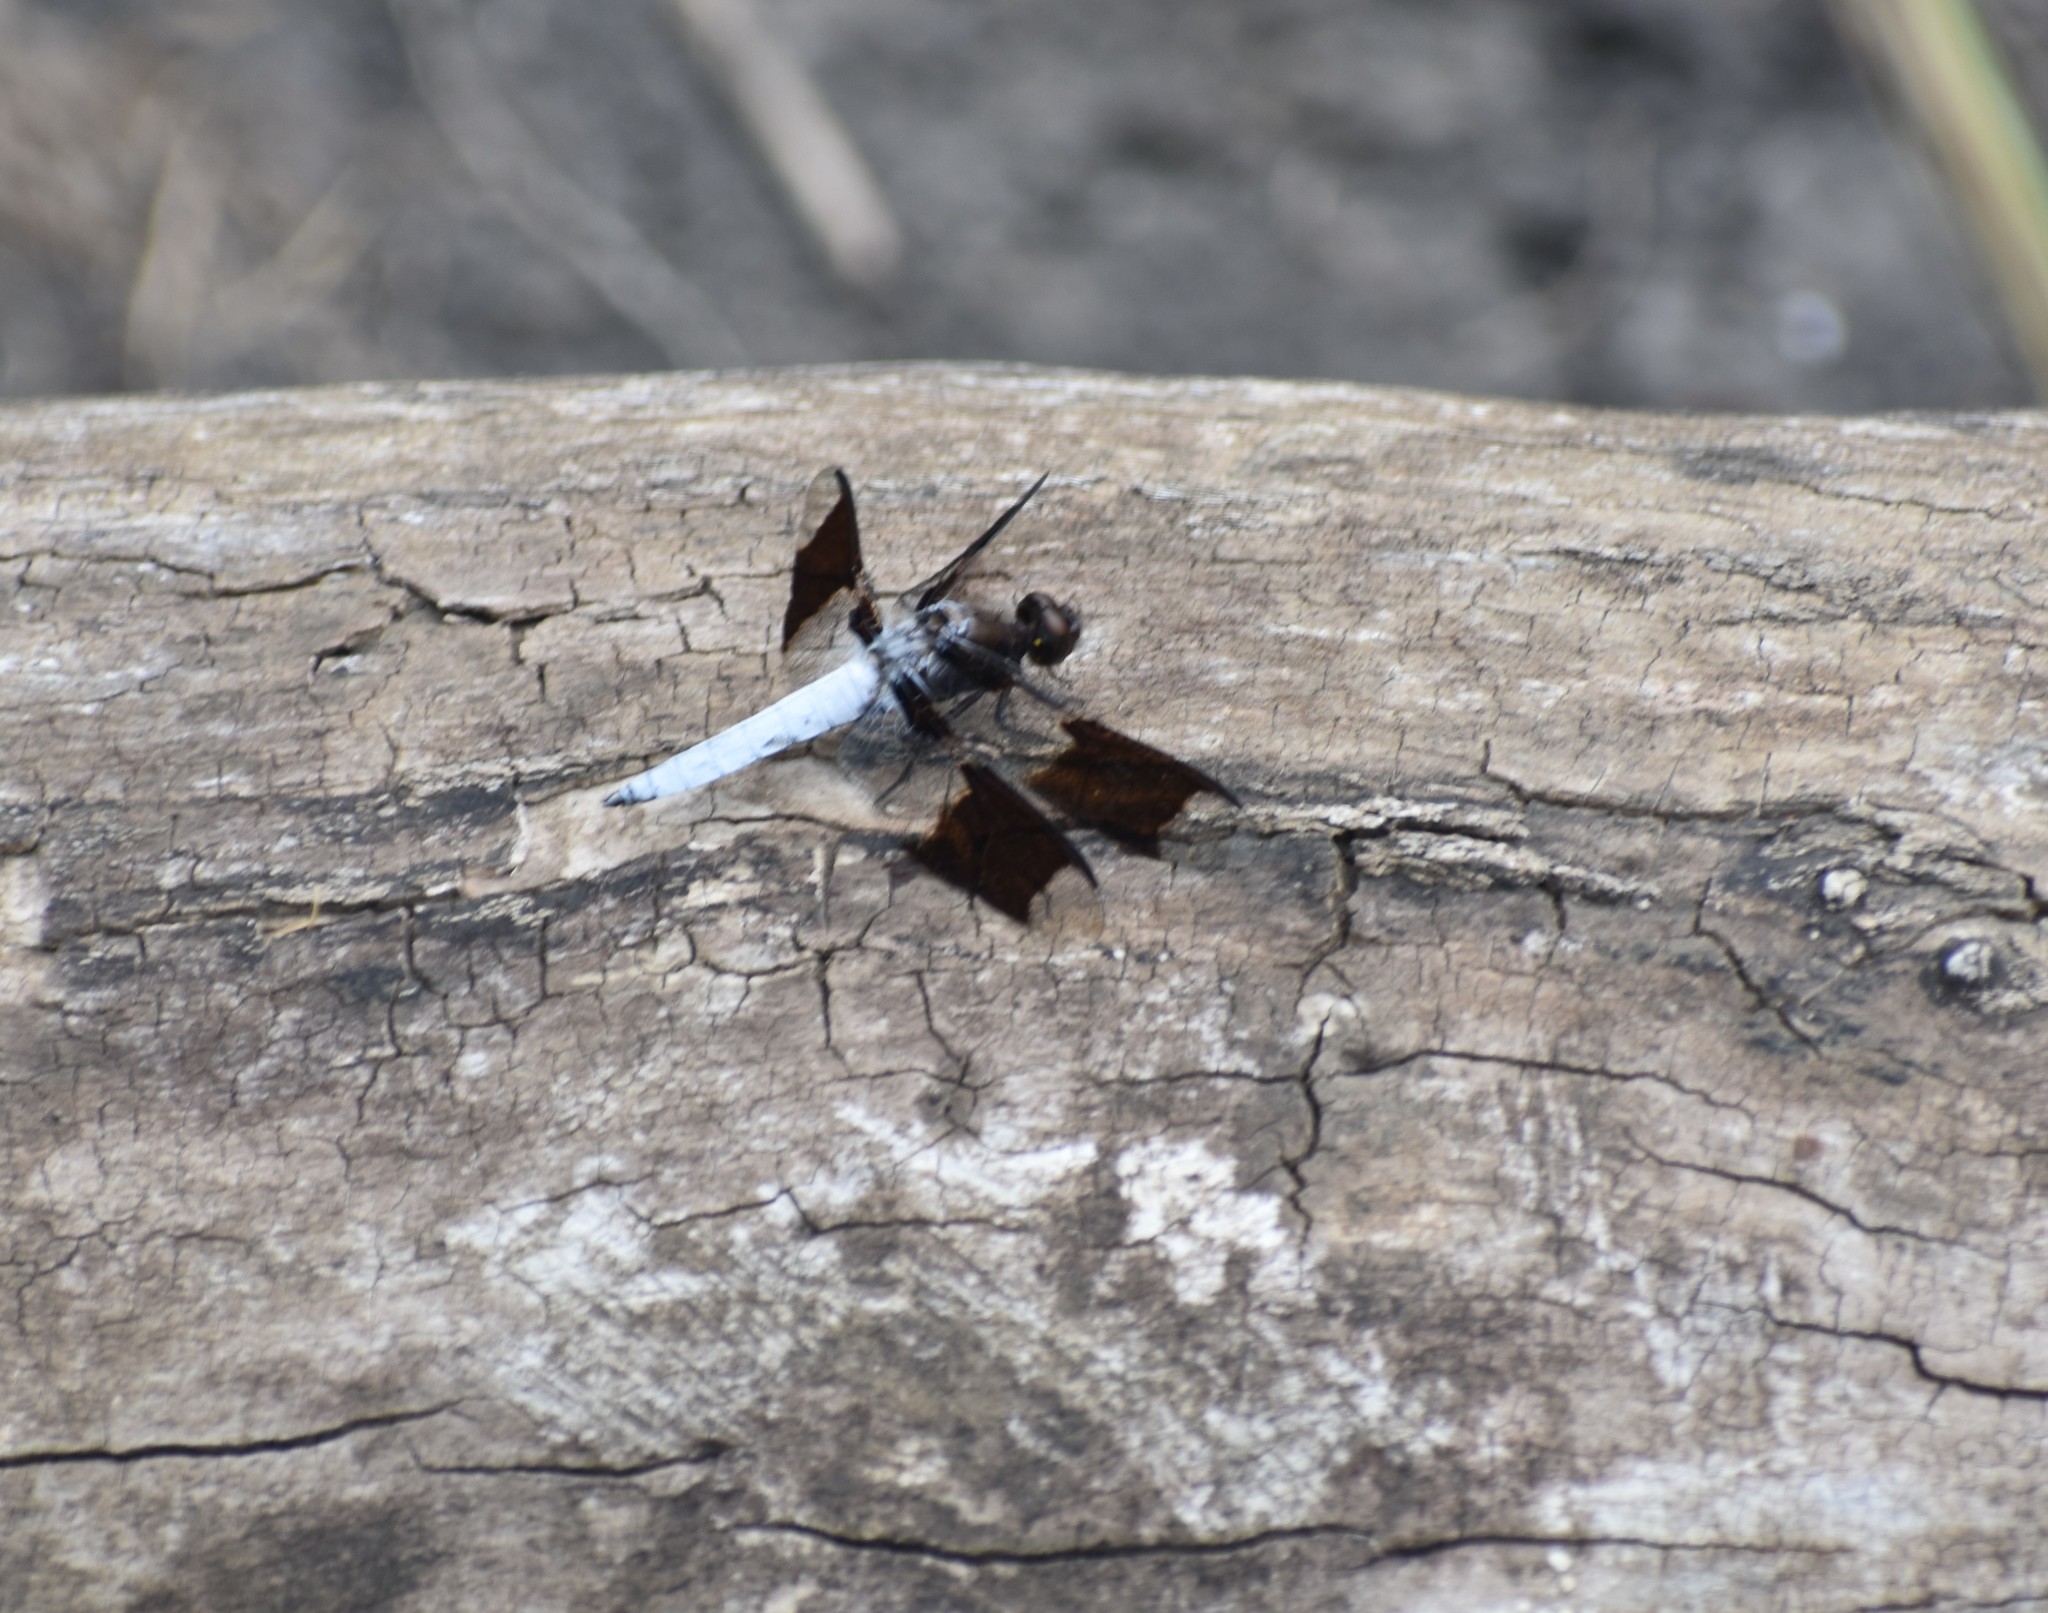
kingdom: Animalia
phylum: Arthropoda
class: Insecta
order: Odonata
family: Libellulidae
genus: Plathemis
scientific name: Plathemis lydia
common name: Common whitetail
